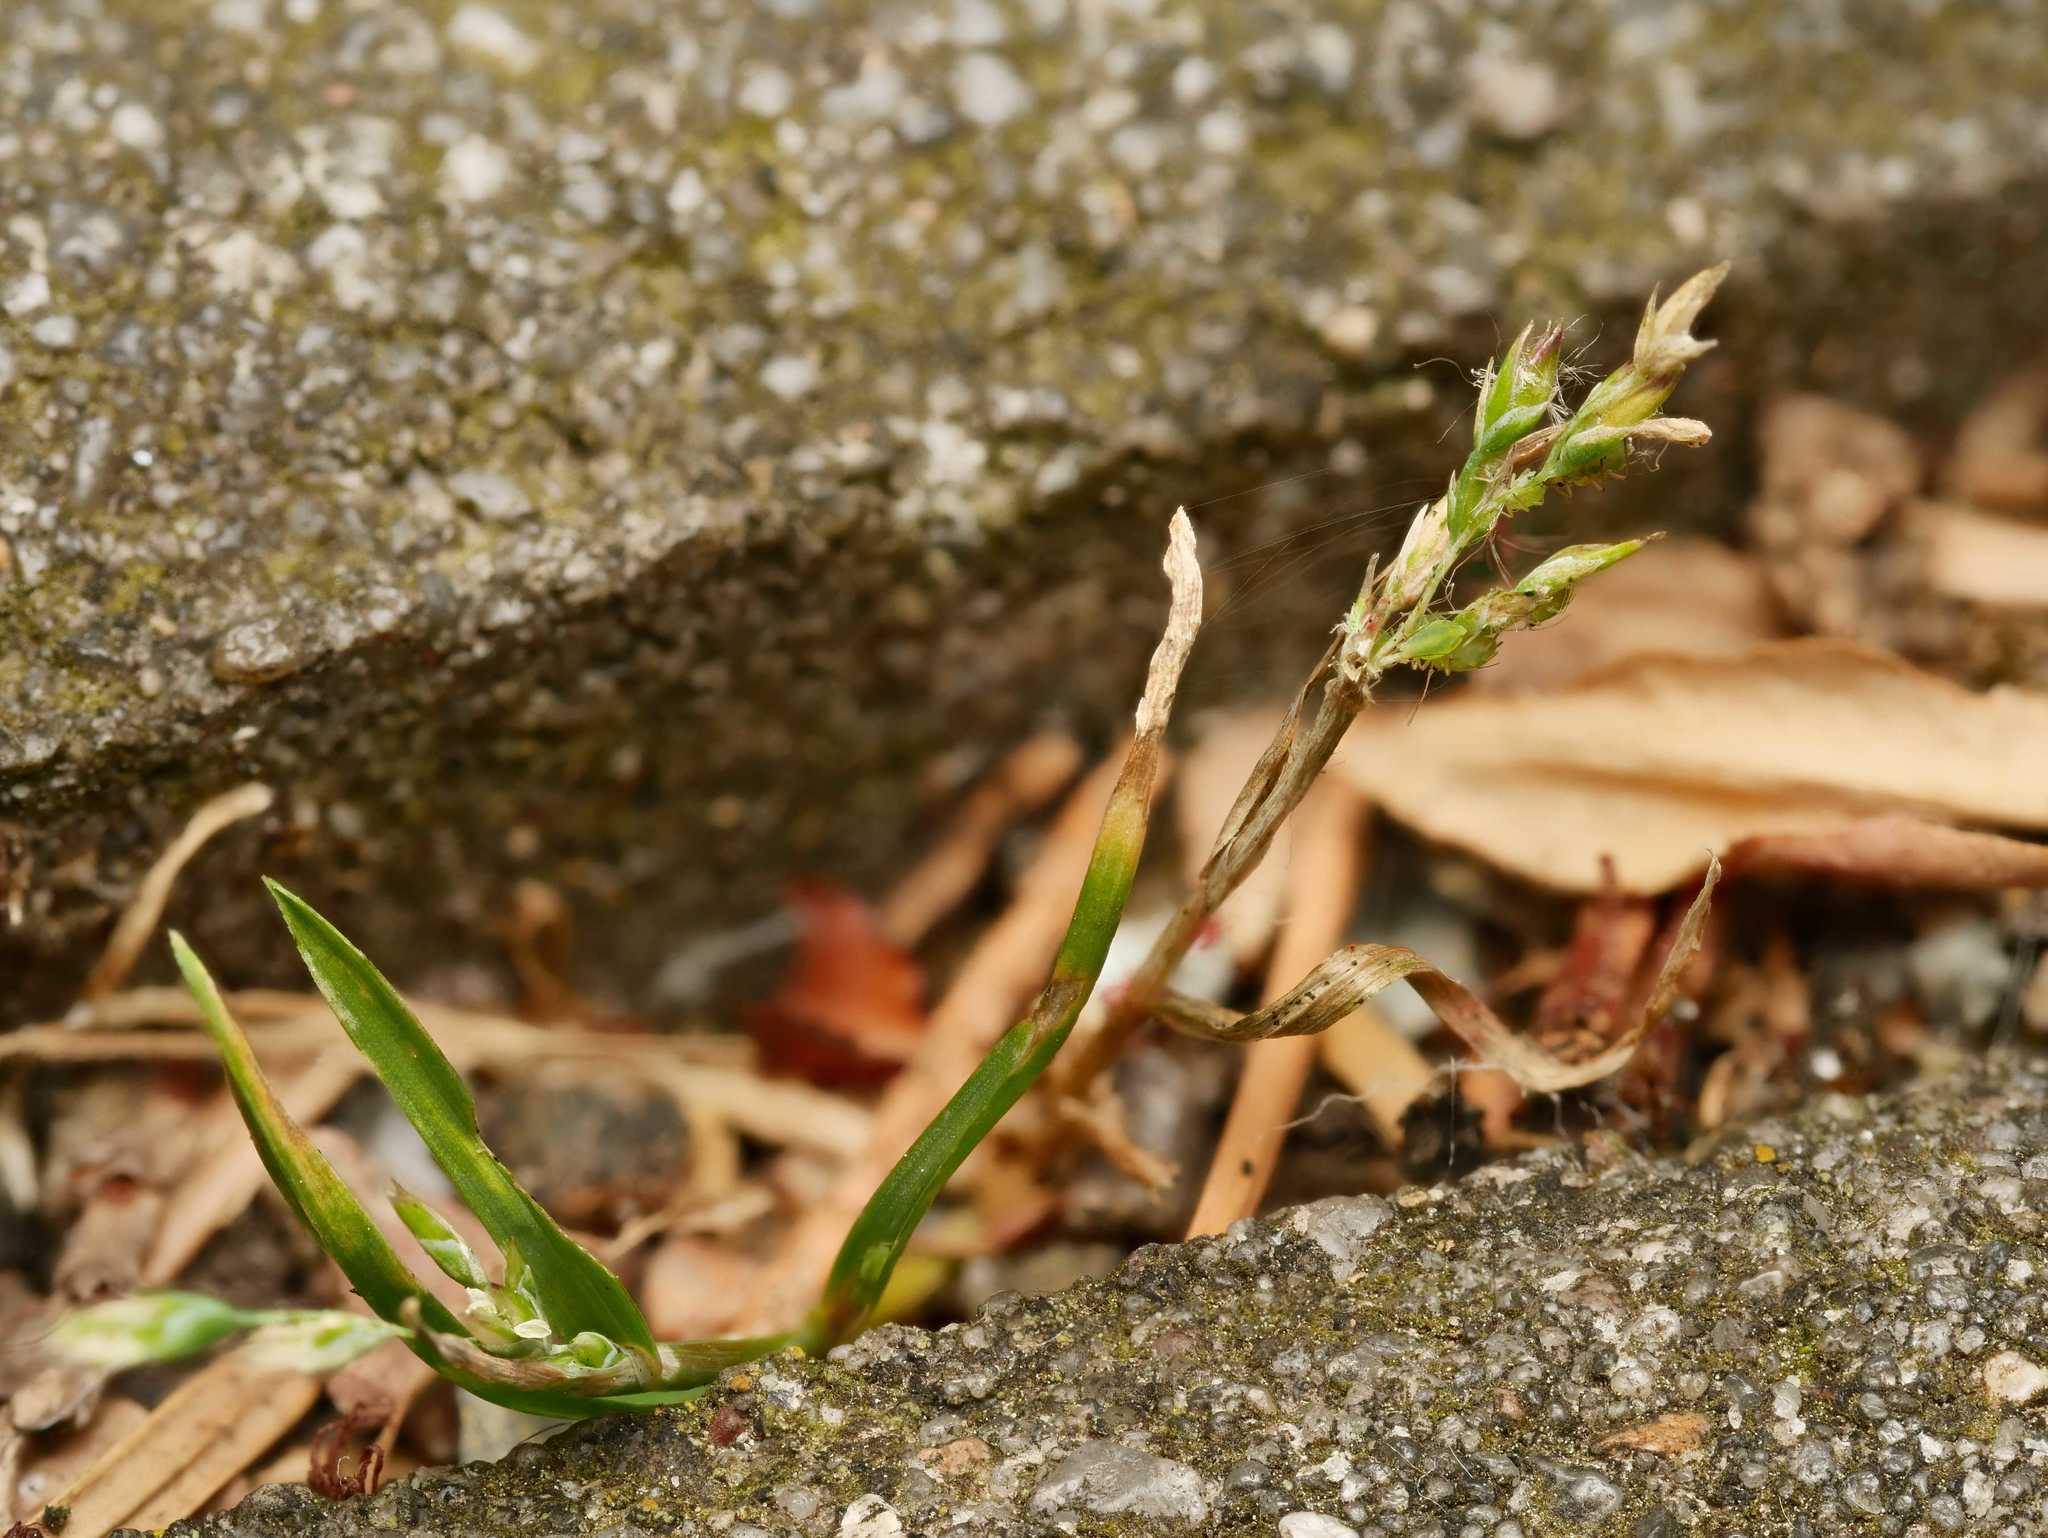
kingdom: Plantae
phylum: Tracheophyta
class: Liliopsida
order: Poales
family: Poaceae
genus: Poa
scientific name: Poa annua
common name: Annual bluegrass
